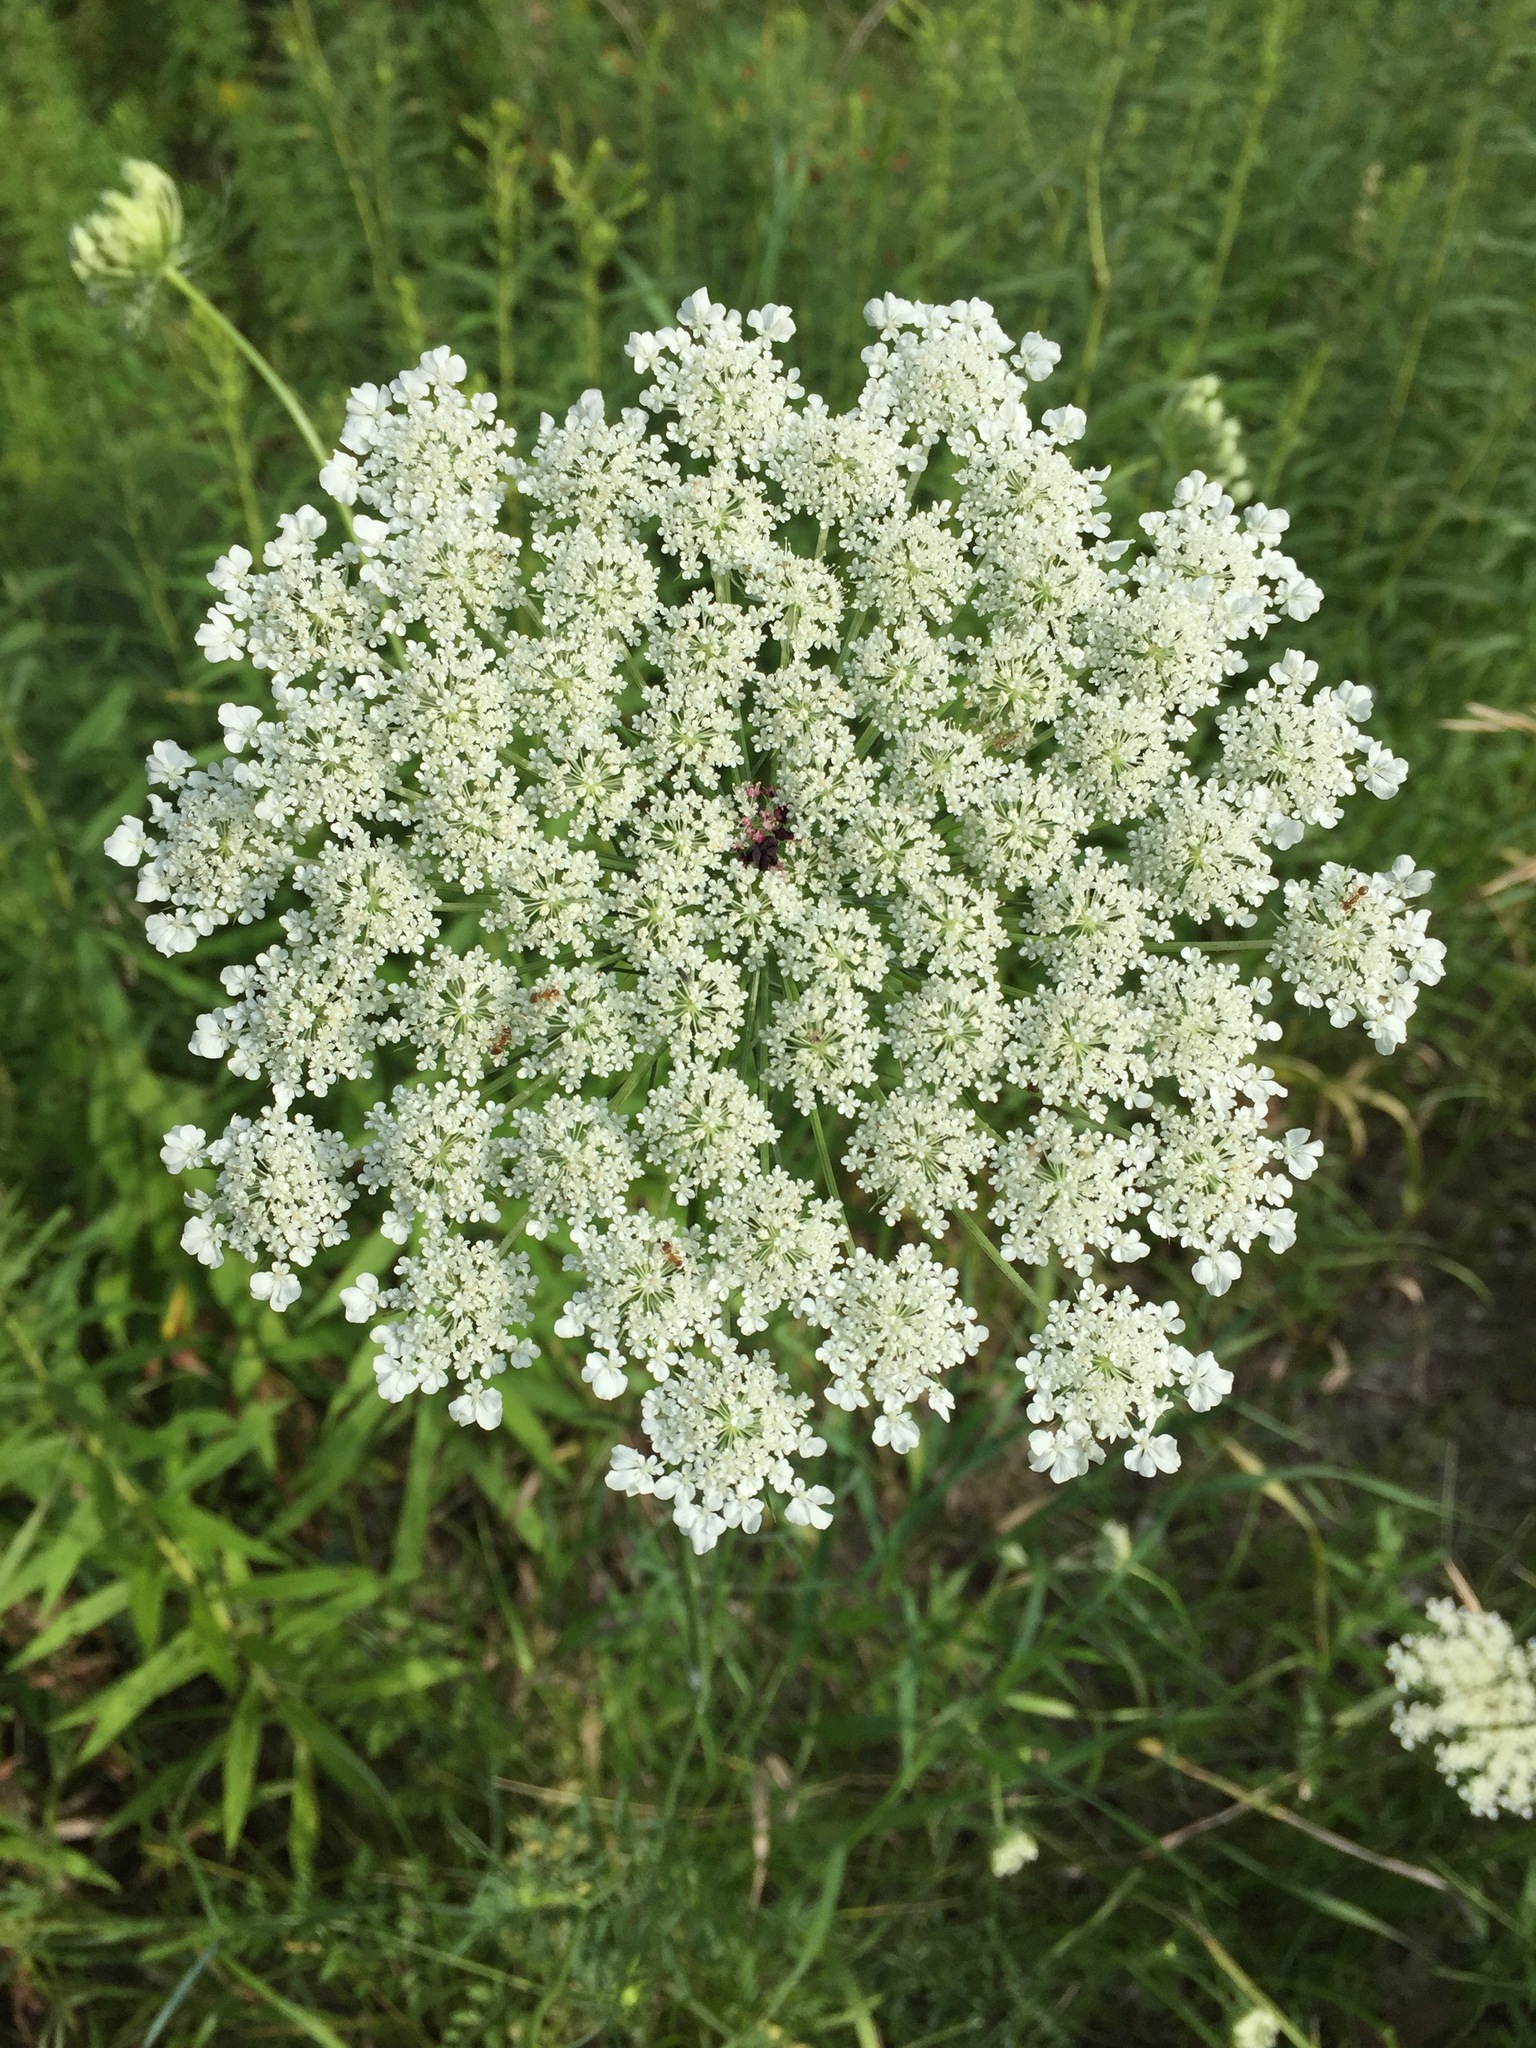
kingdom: Plantae
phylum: Tracheophyta
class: Magnoliopsida
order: Apiales
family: Apiaceae
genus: Daucus
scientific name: Daucus carota
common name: Wild carrot
